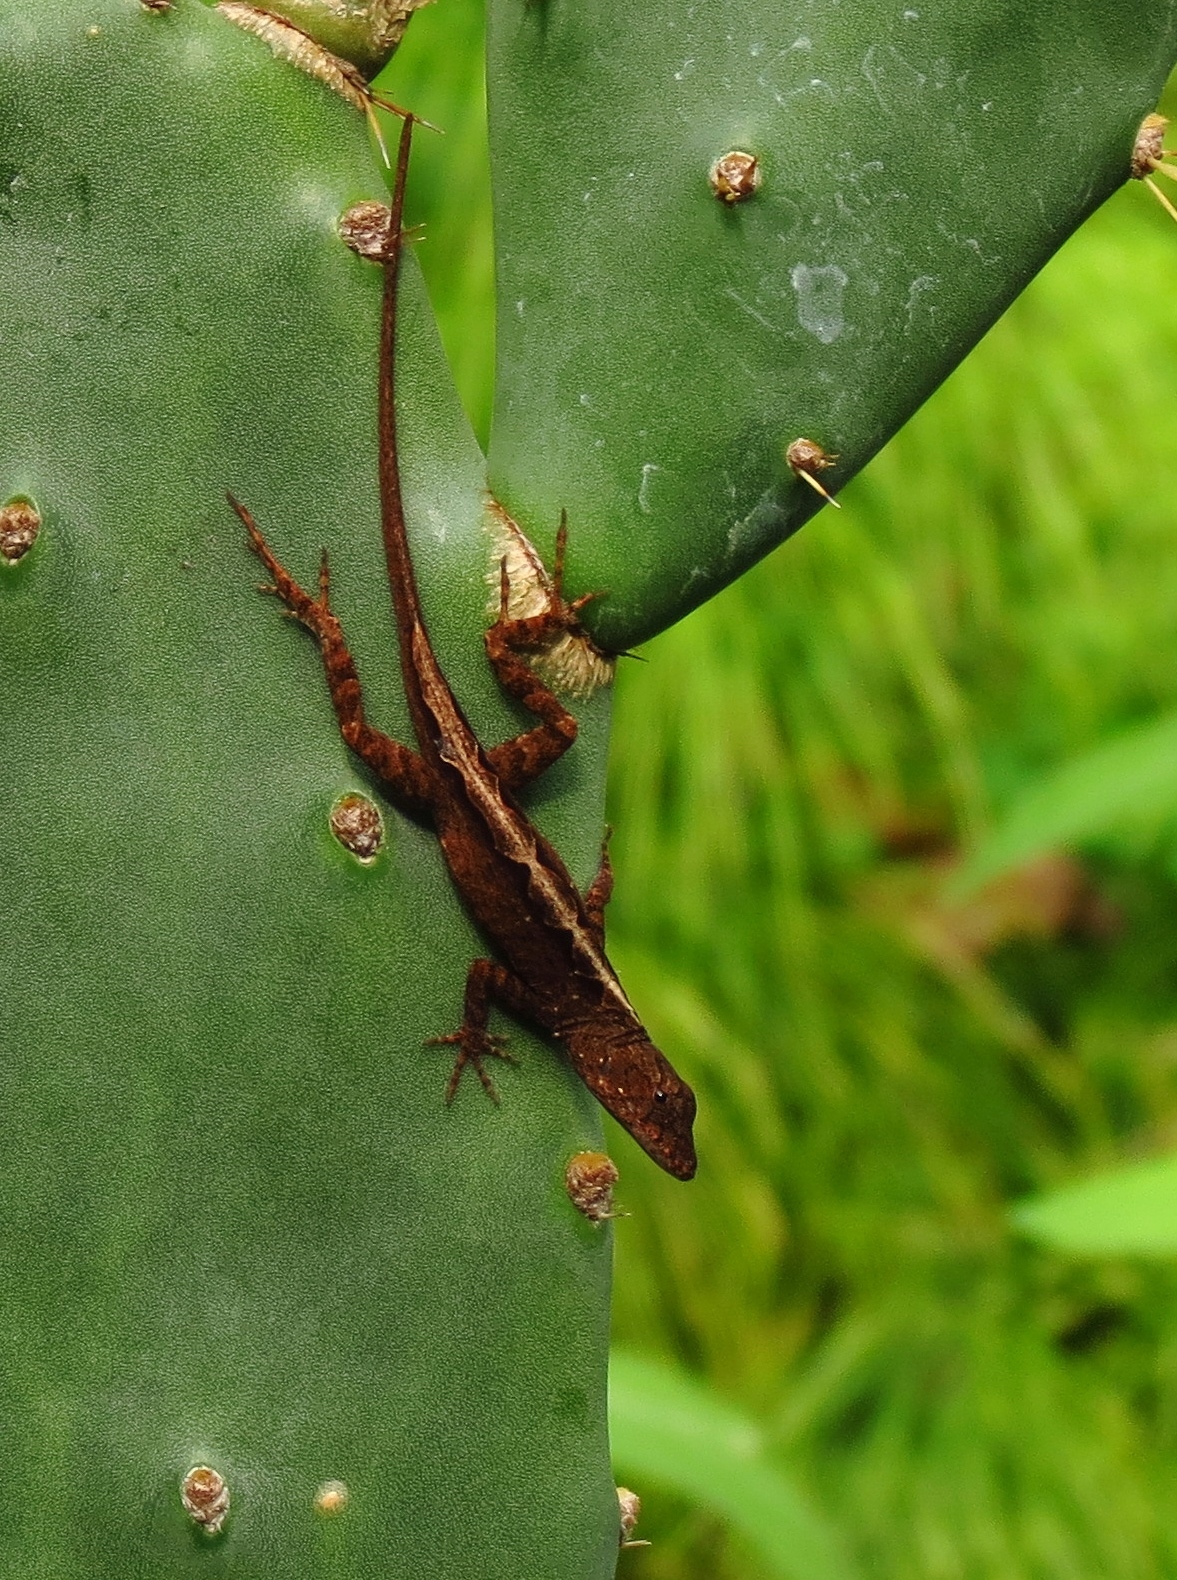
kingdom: Animalia
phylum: Chordata
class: Squamata
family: Dactyloidae
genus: Anolis
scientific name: Anolis sagrei
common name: Brown anole
